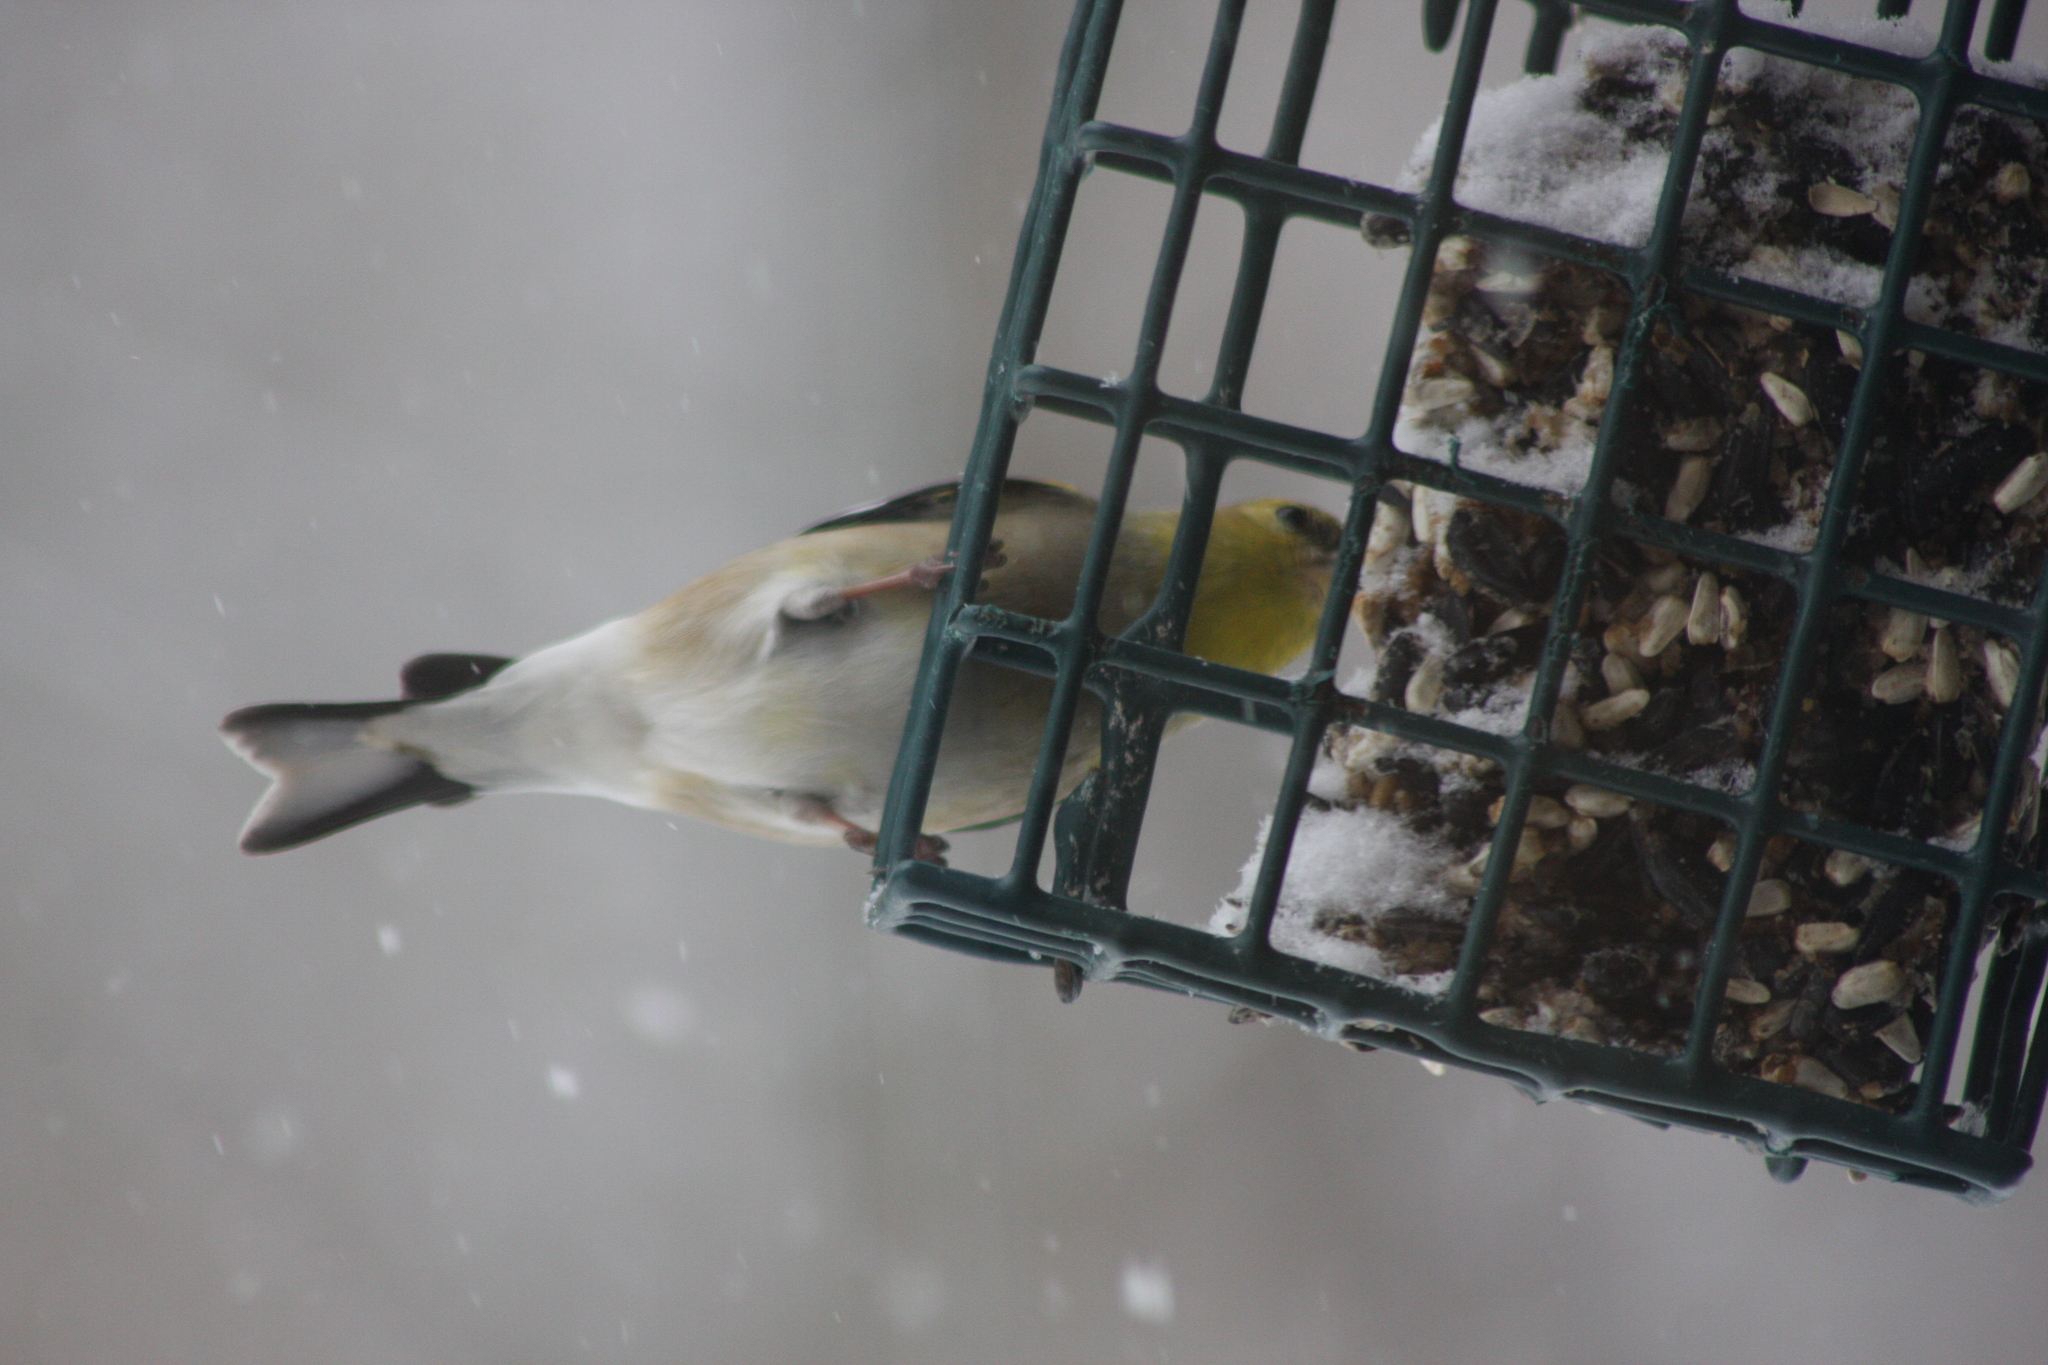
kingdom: Animalia
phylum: Chordata
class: Aves
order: Passeriformes
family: Fringillidae
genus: Spinus
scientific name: Spinus tristis
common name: American goldfinch
